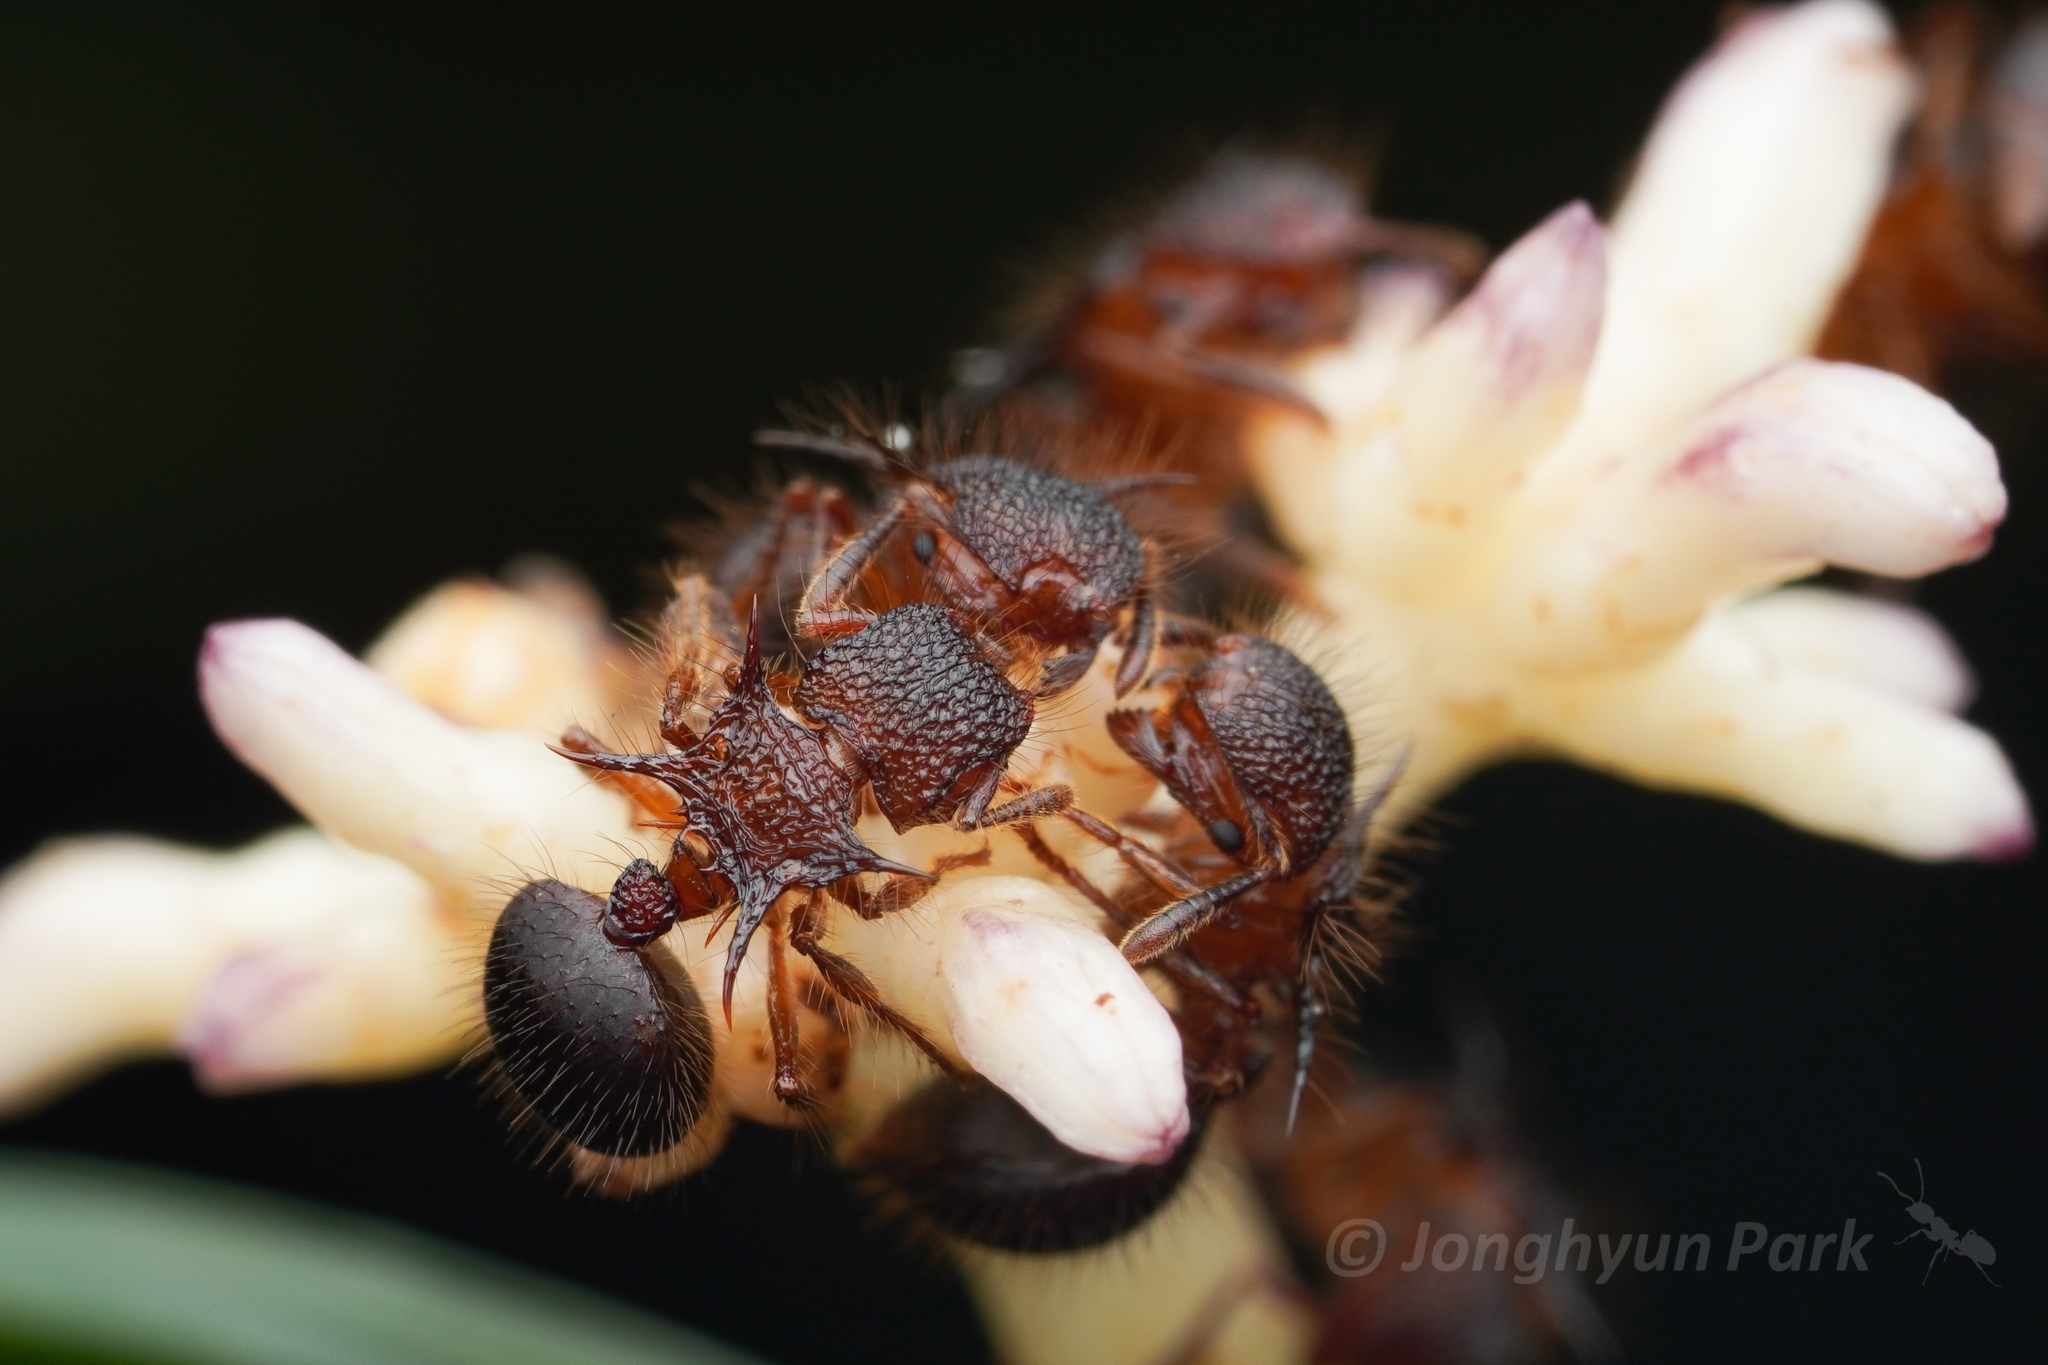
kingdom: Animalia
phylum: Arthropoda
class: Insecta
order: Hymenoptera
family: Formicidae
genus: Meranoplus
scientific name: Meranoplus mucronatus
